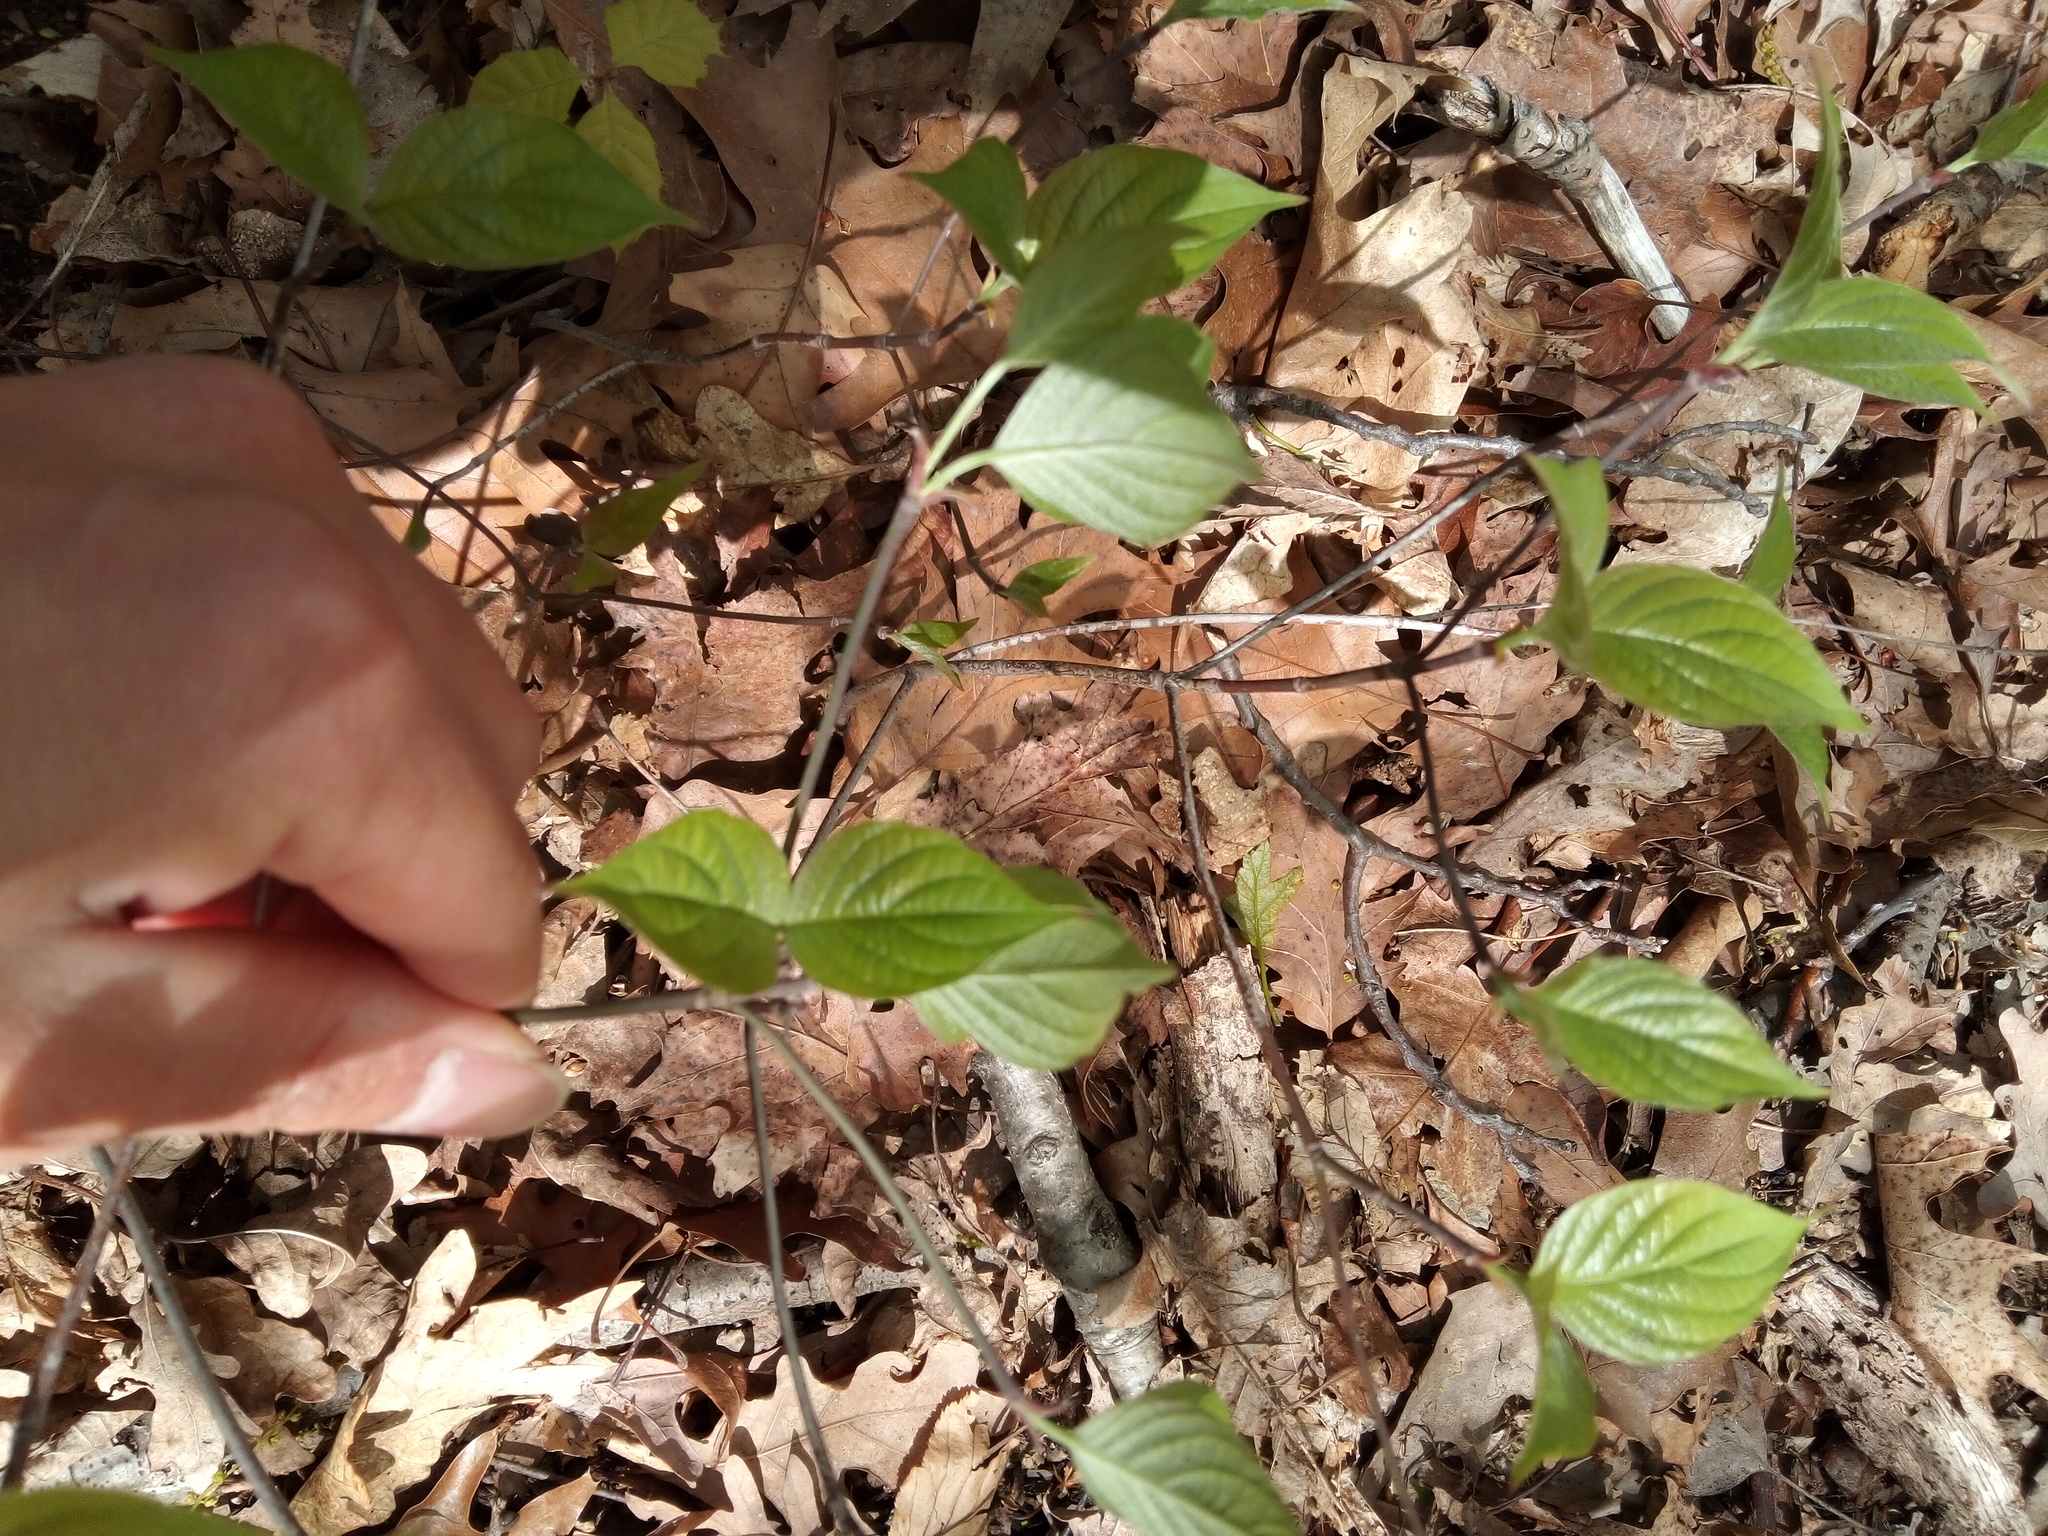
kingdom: Plantae
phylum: Tracheophyta
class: Magnoliopsida
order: Cornales
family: Cornaceae
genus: Cornus
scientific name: Cornus florida
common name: Flowering dogwood
